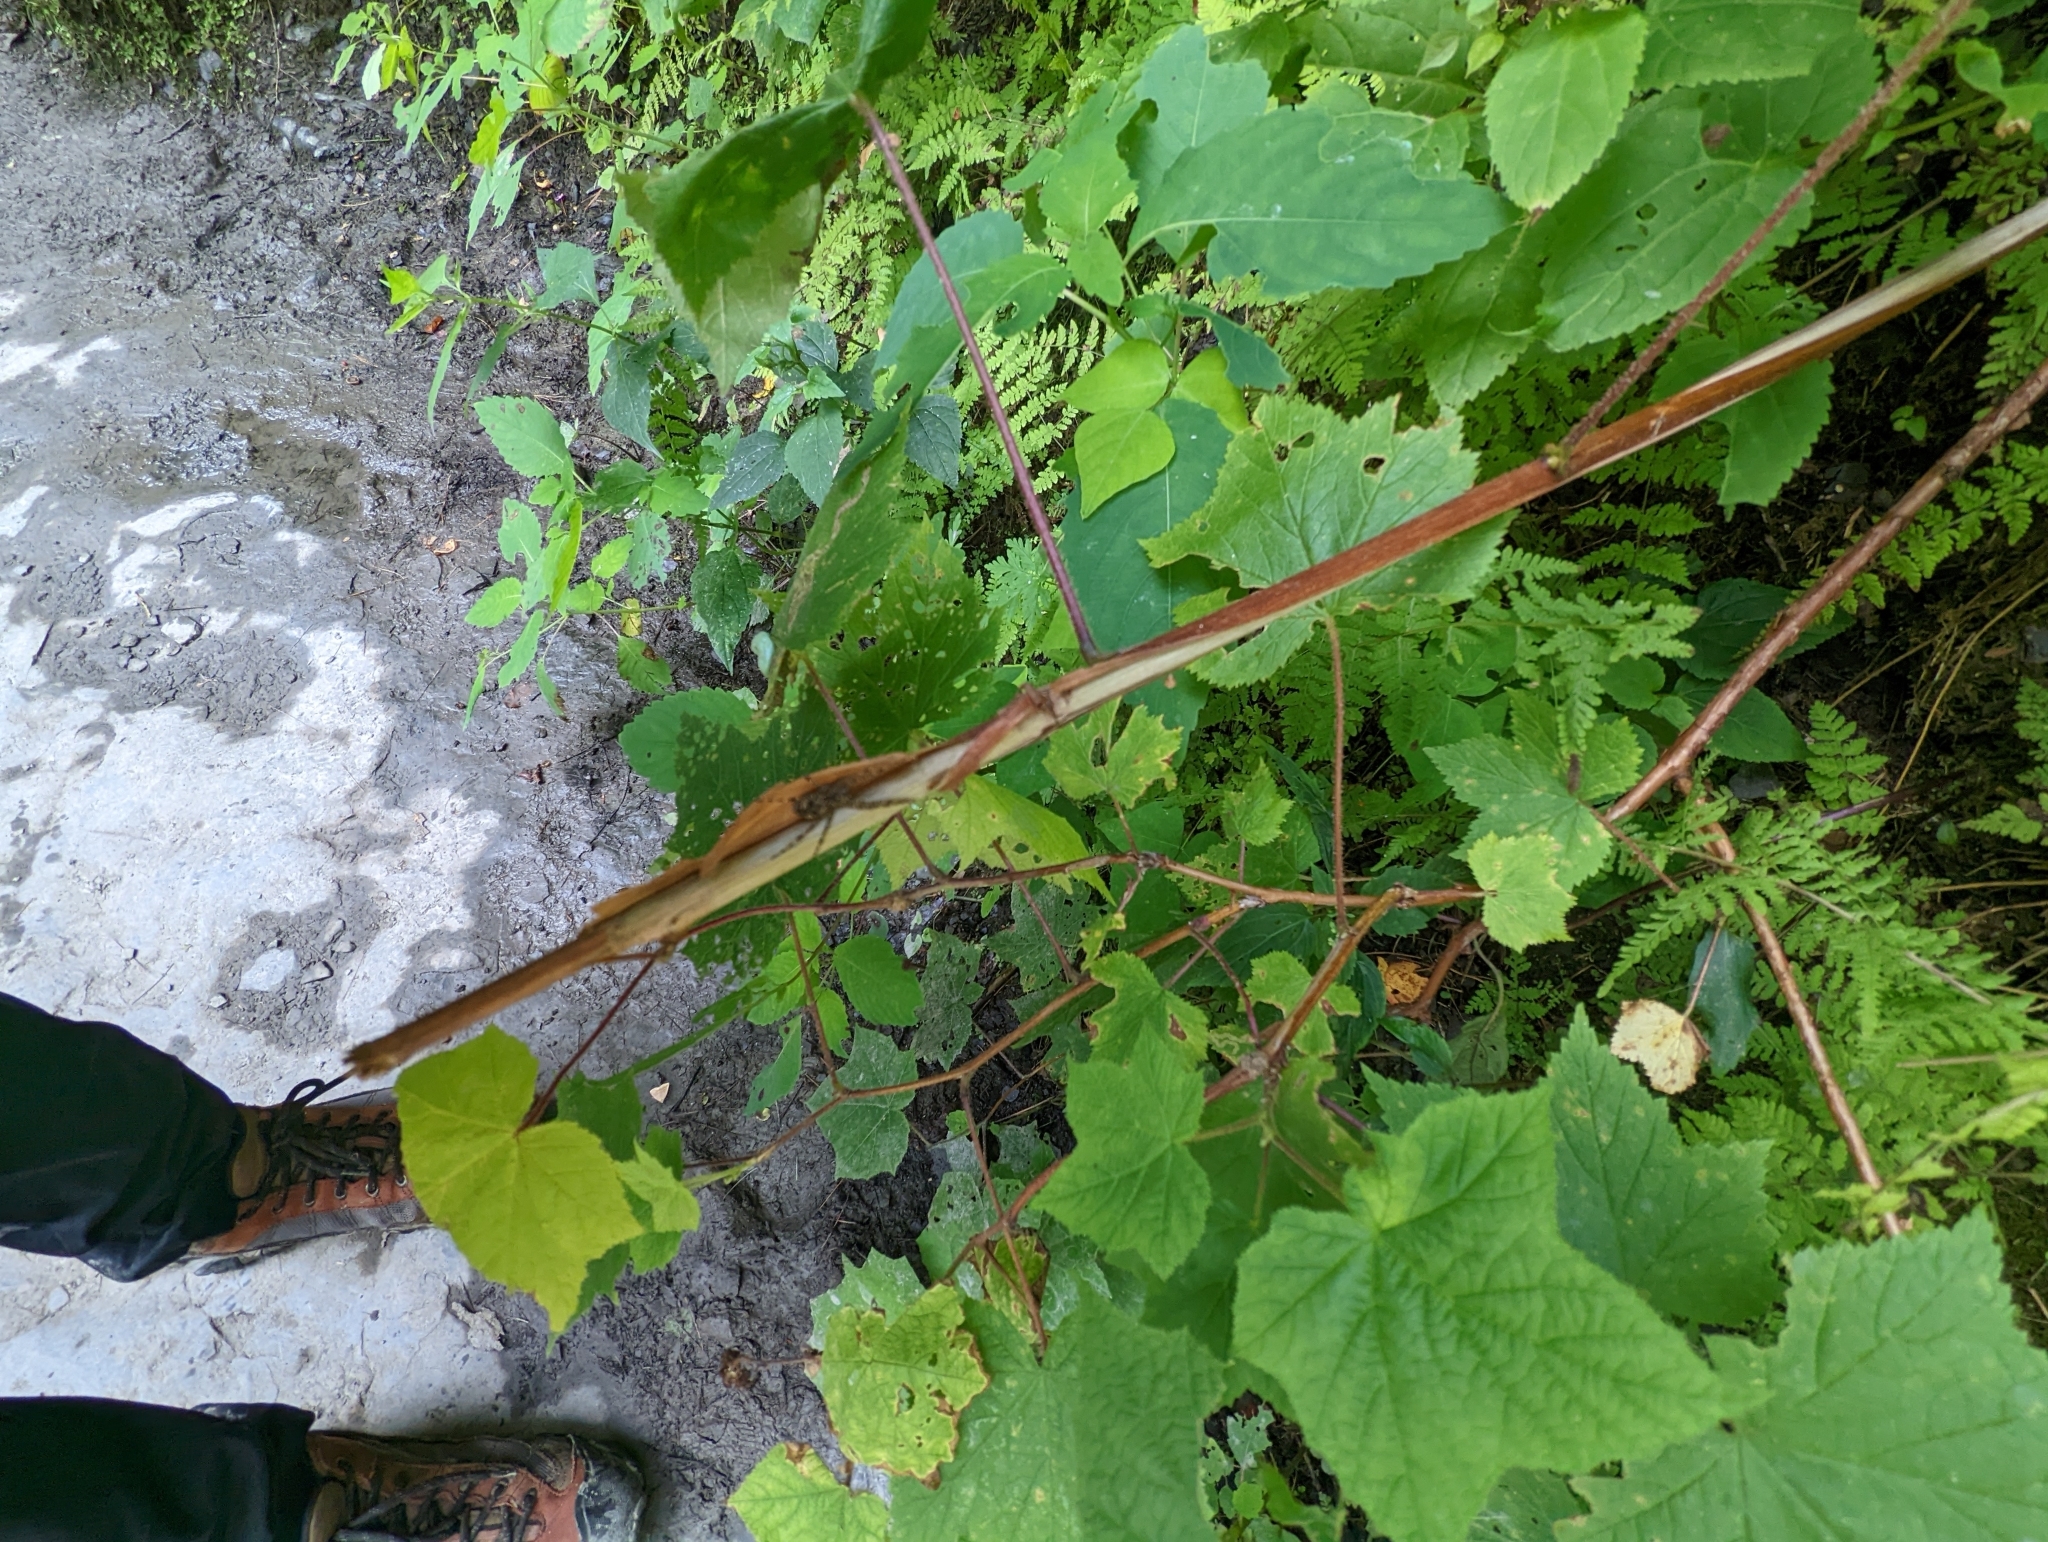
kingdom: Animalia
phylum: Arthropoda
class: Arachnida
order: Araneae
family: Pisauridae
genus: Dolomedes
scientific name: Dolomedes tenebrosus
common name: Dark fishing spider
